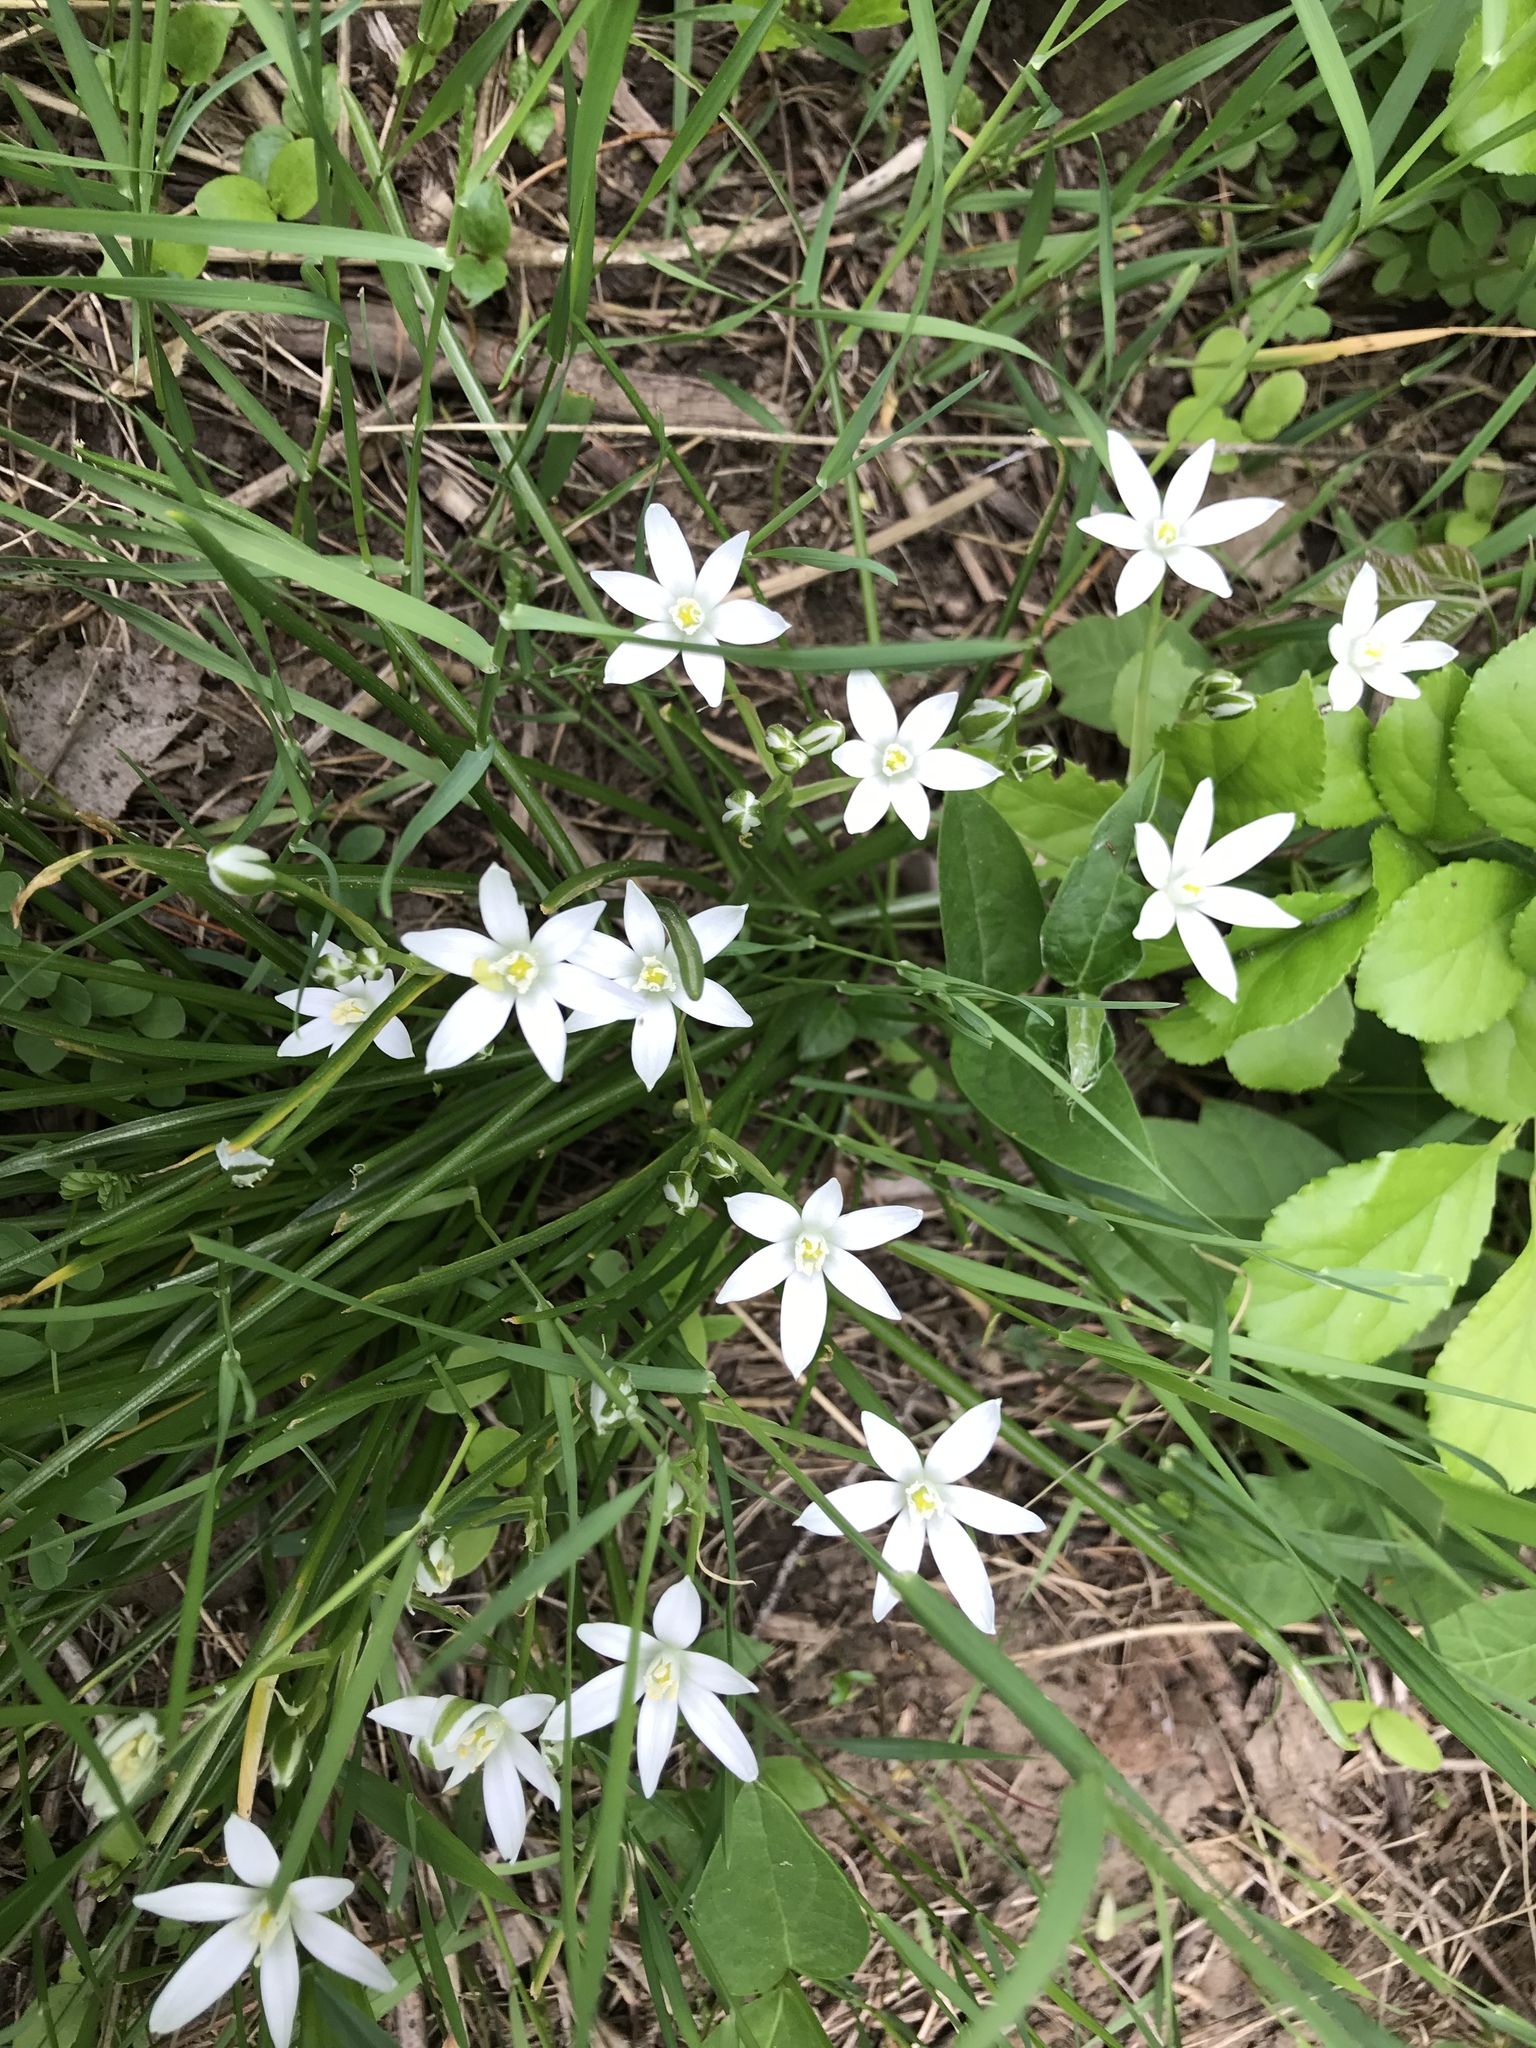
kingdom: Plantae
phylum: Tracheophyta
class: Liliopsida
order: Asparagales
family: Asparagaceae
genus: Ornithogalum
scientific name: Ornithogalum umbellatum
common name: Garden star-of-bethlehem
